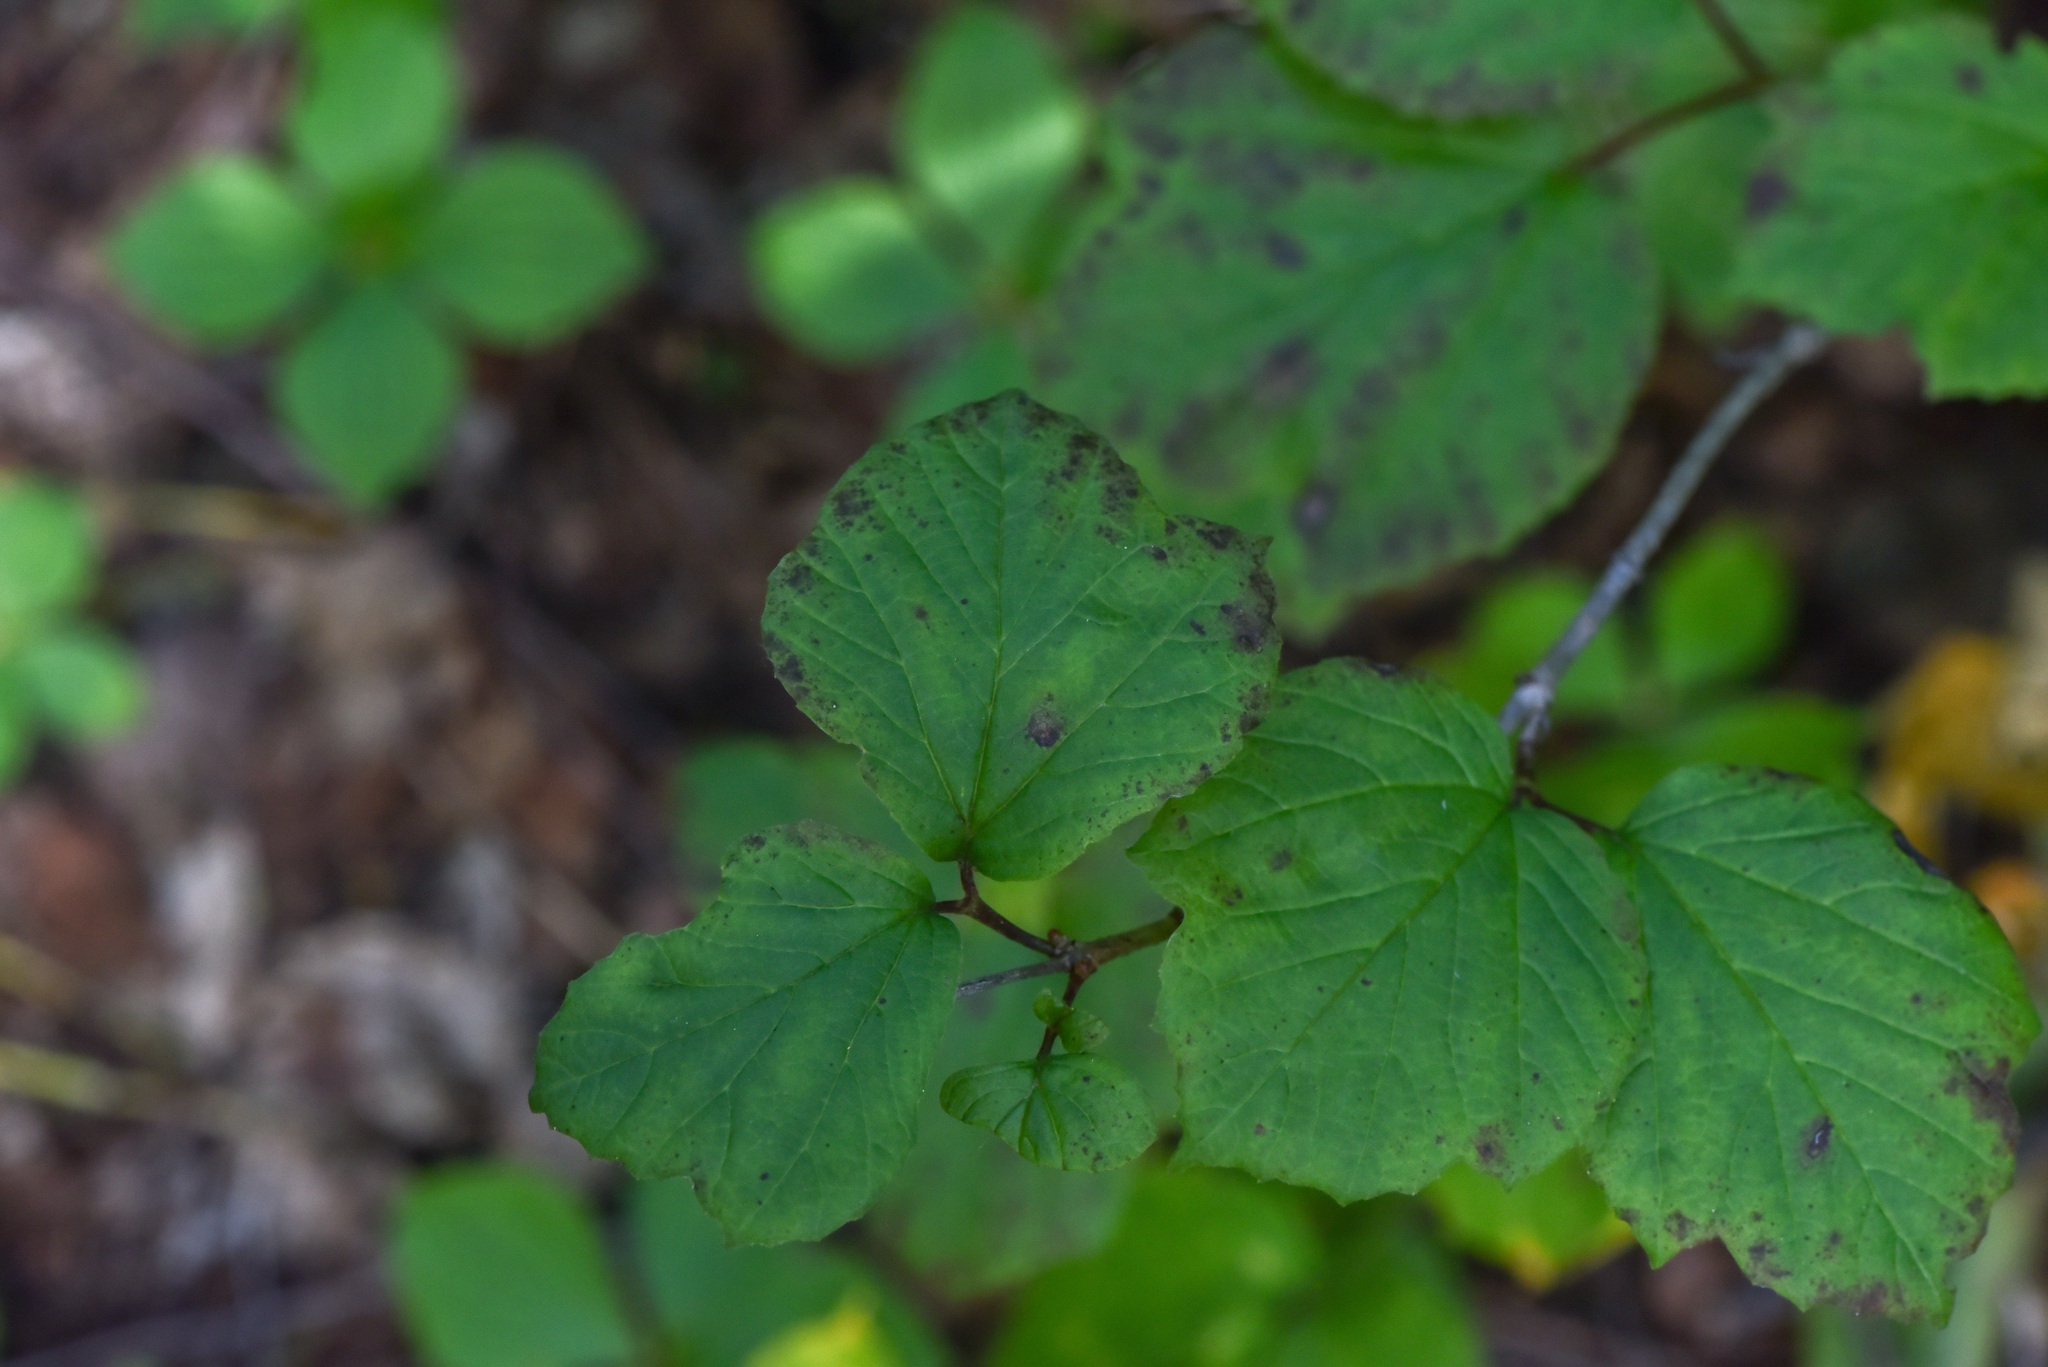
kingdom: Plantae
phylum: Tracheophyta
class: Magnoliopsida
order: Dipsacales
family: Viburnaceae
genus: Viburnum
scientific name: Viburnum edule
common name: Mooseberry
